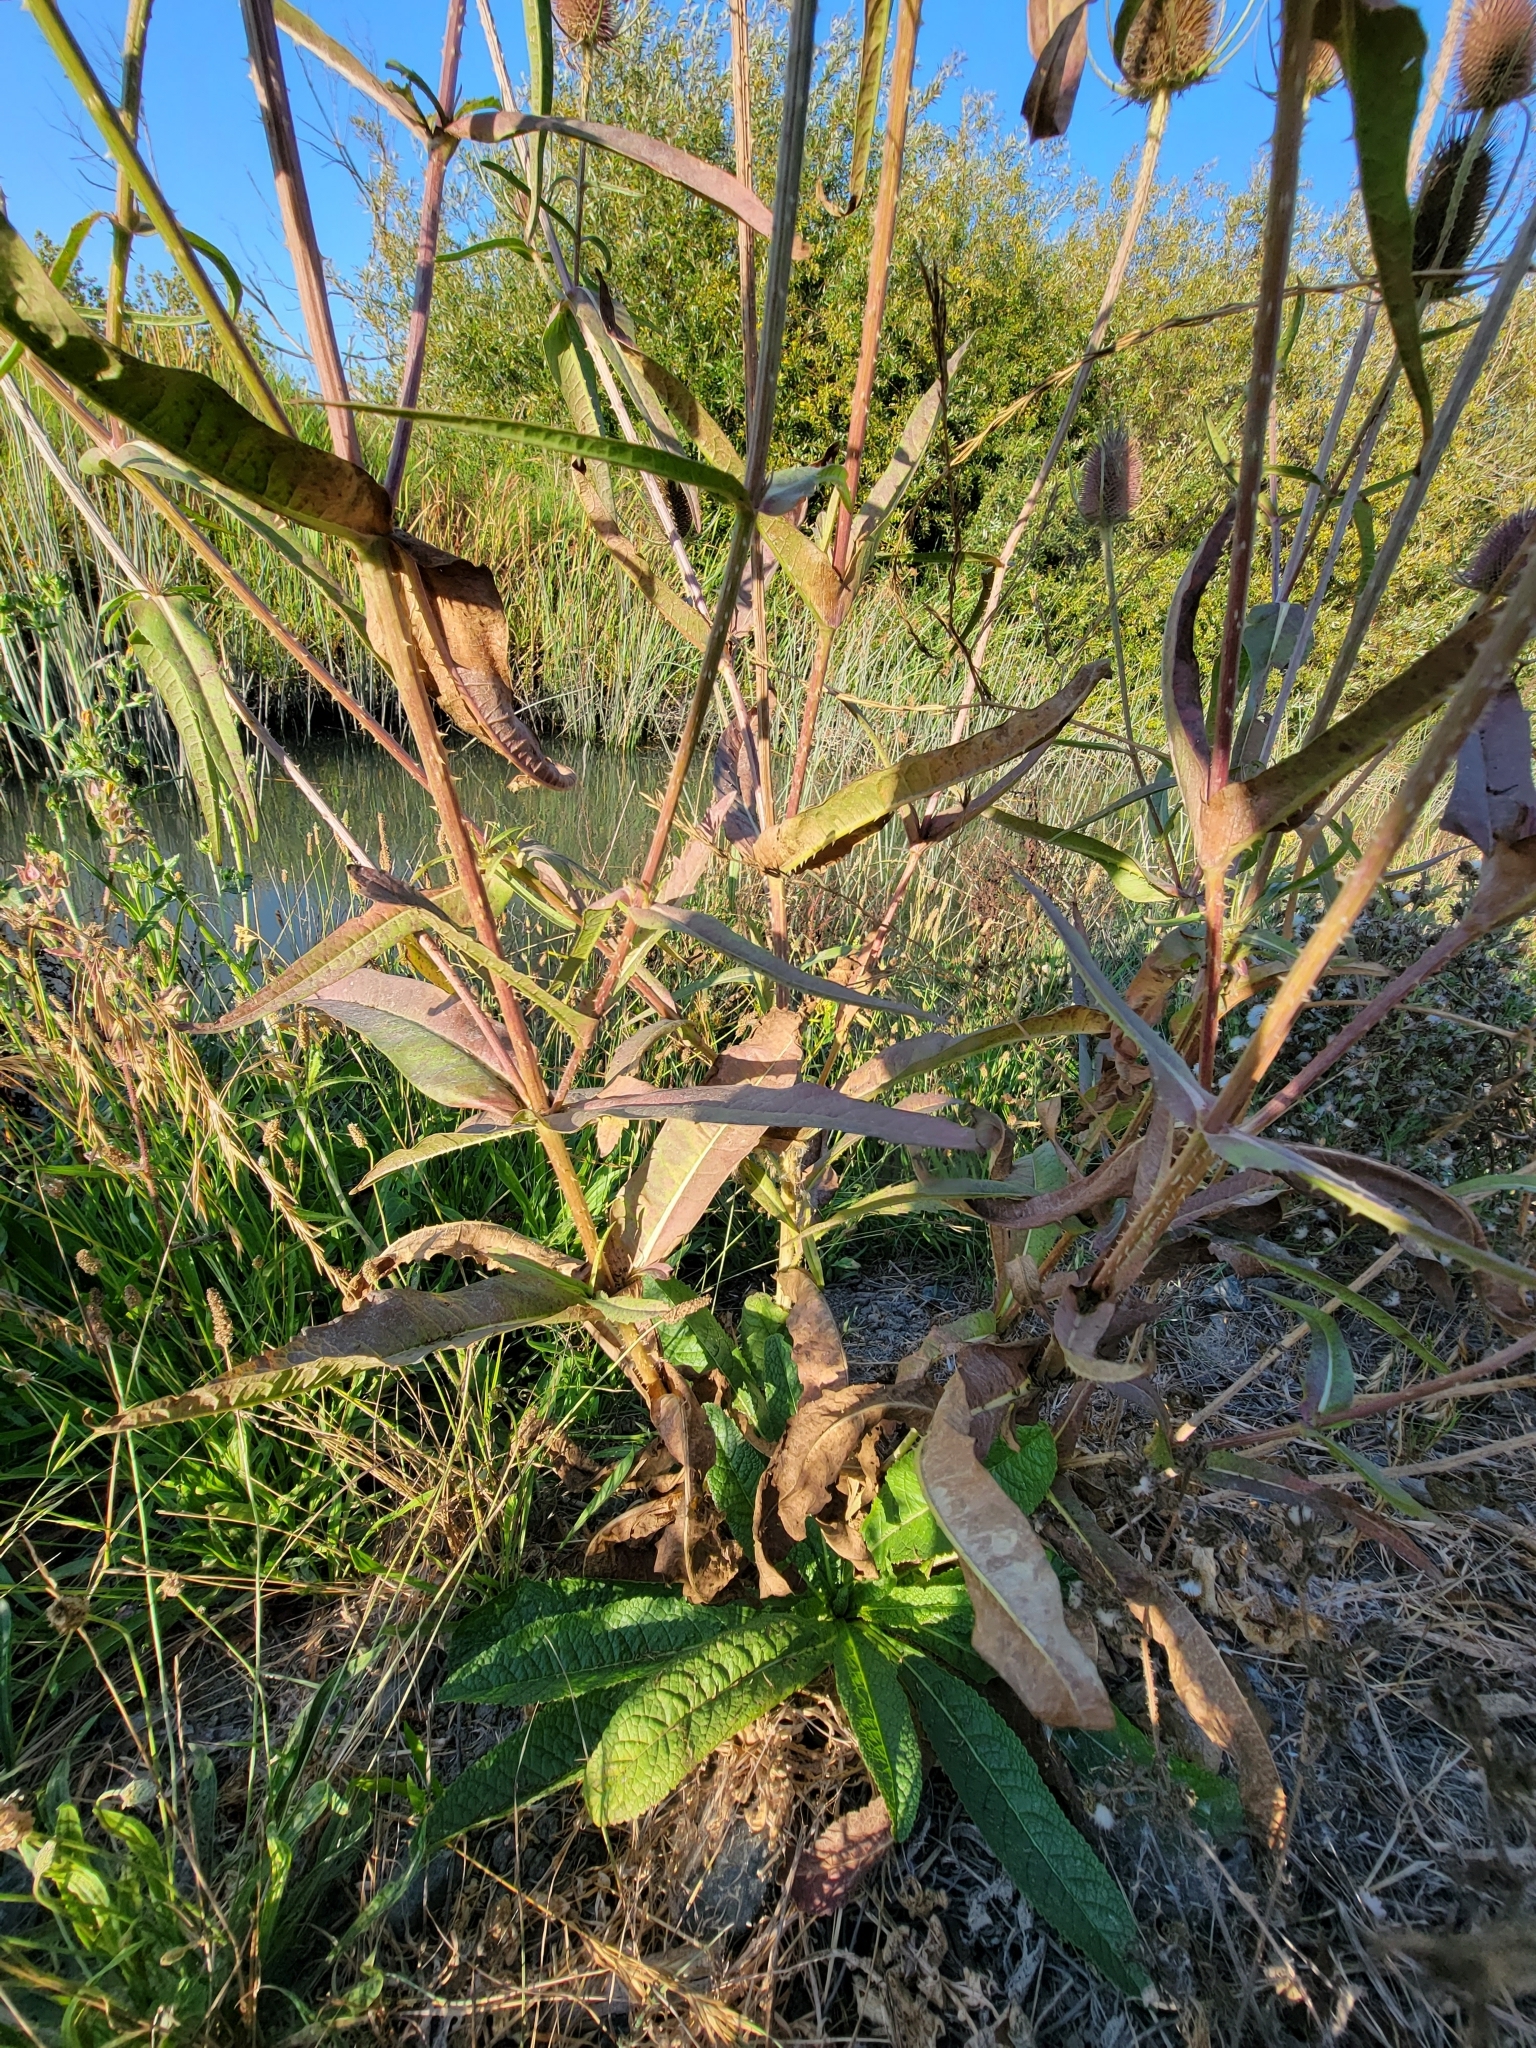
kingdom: Plantae
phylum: Tracheophyta
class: Magnoliopsida
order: Dipsacales
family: Caprifoliaceae
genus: Dipsacus
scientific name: Dipsacus fullonum
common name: Teasel
